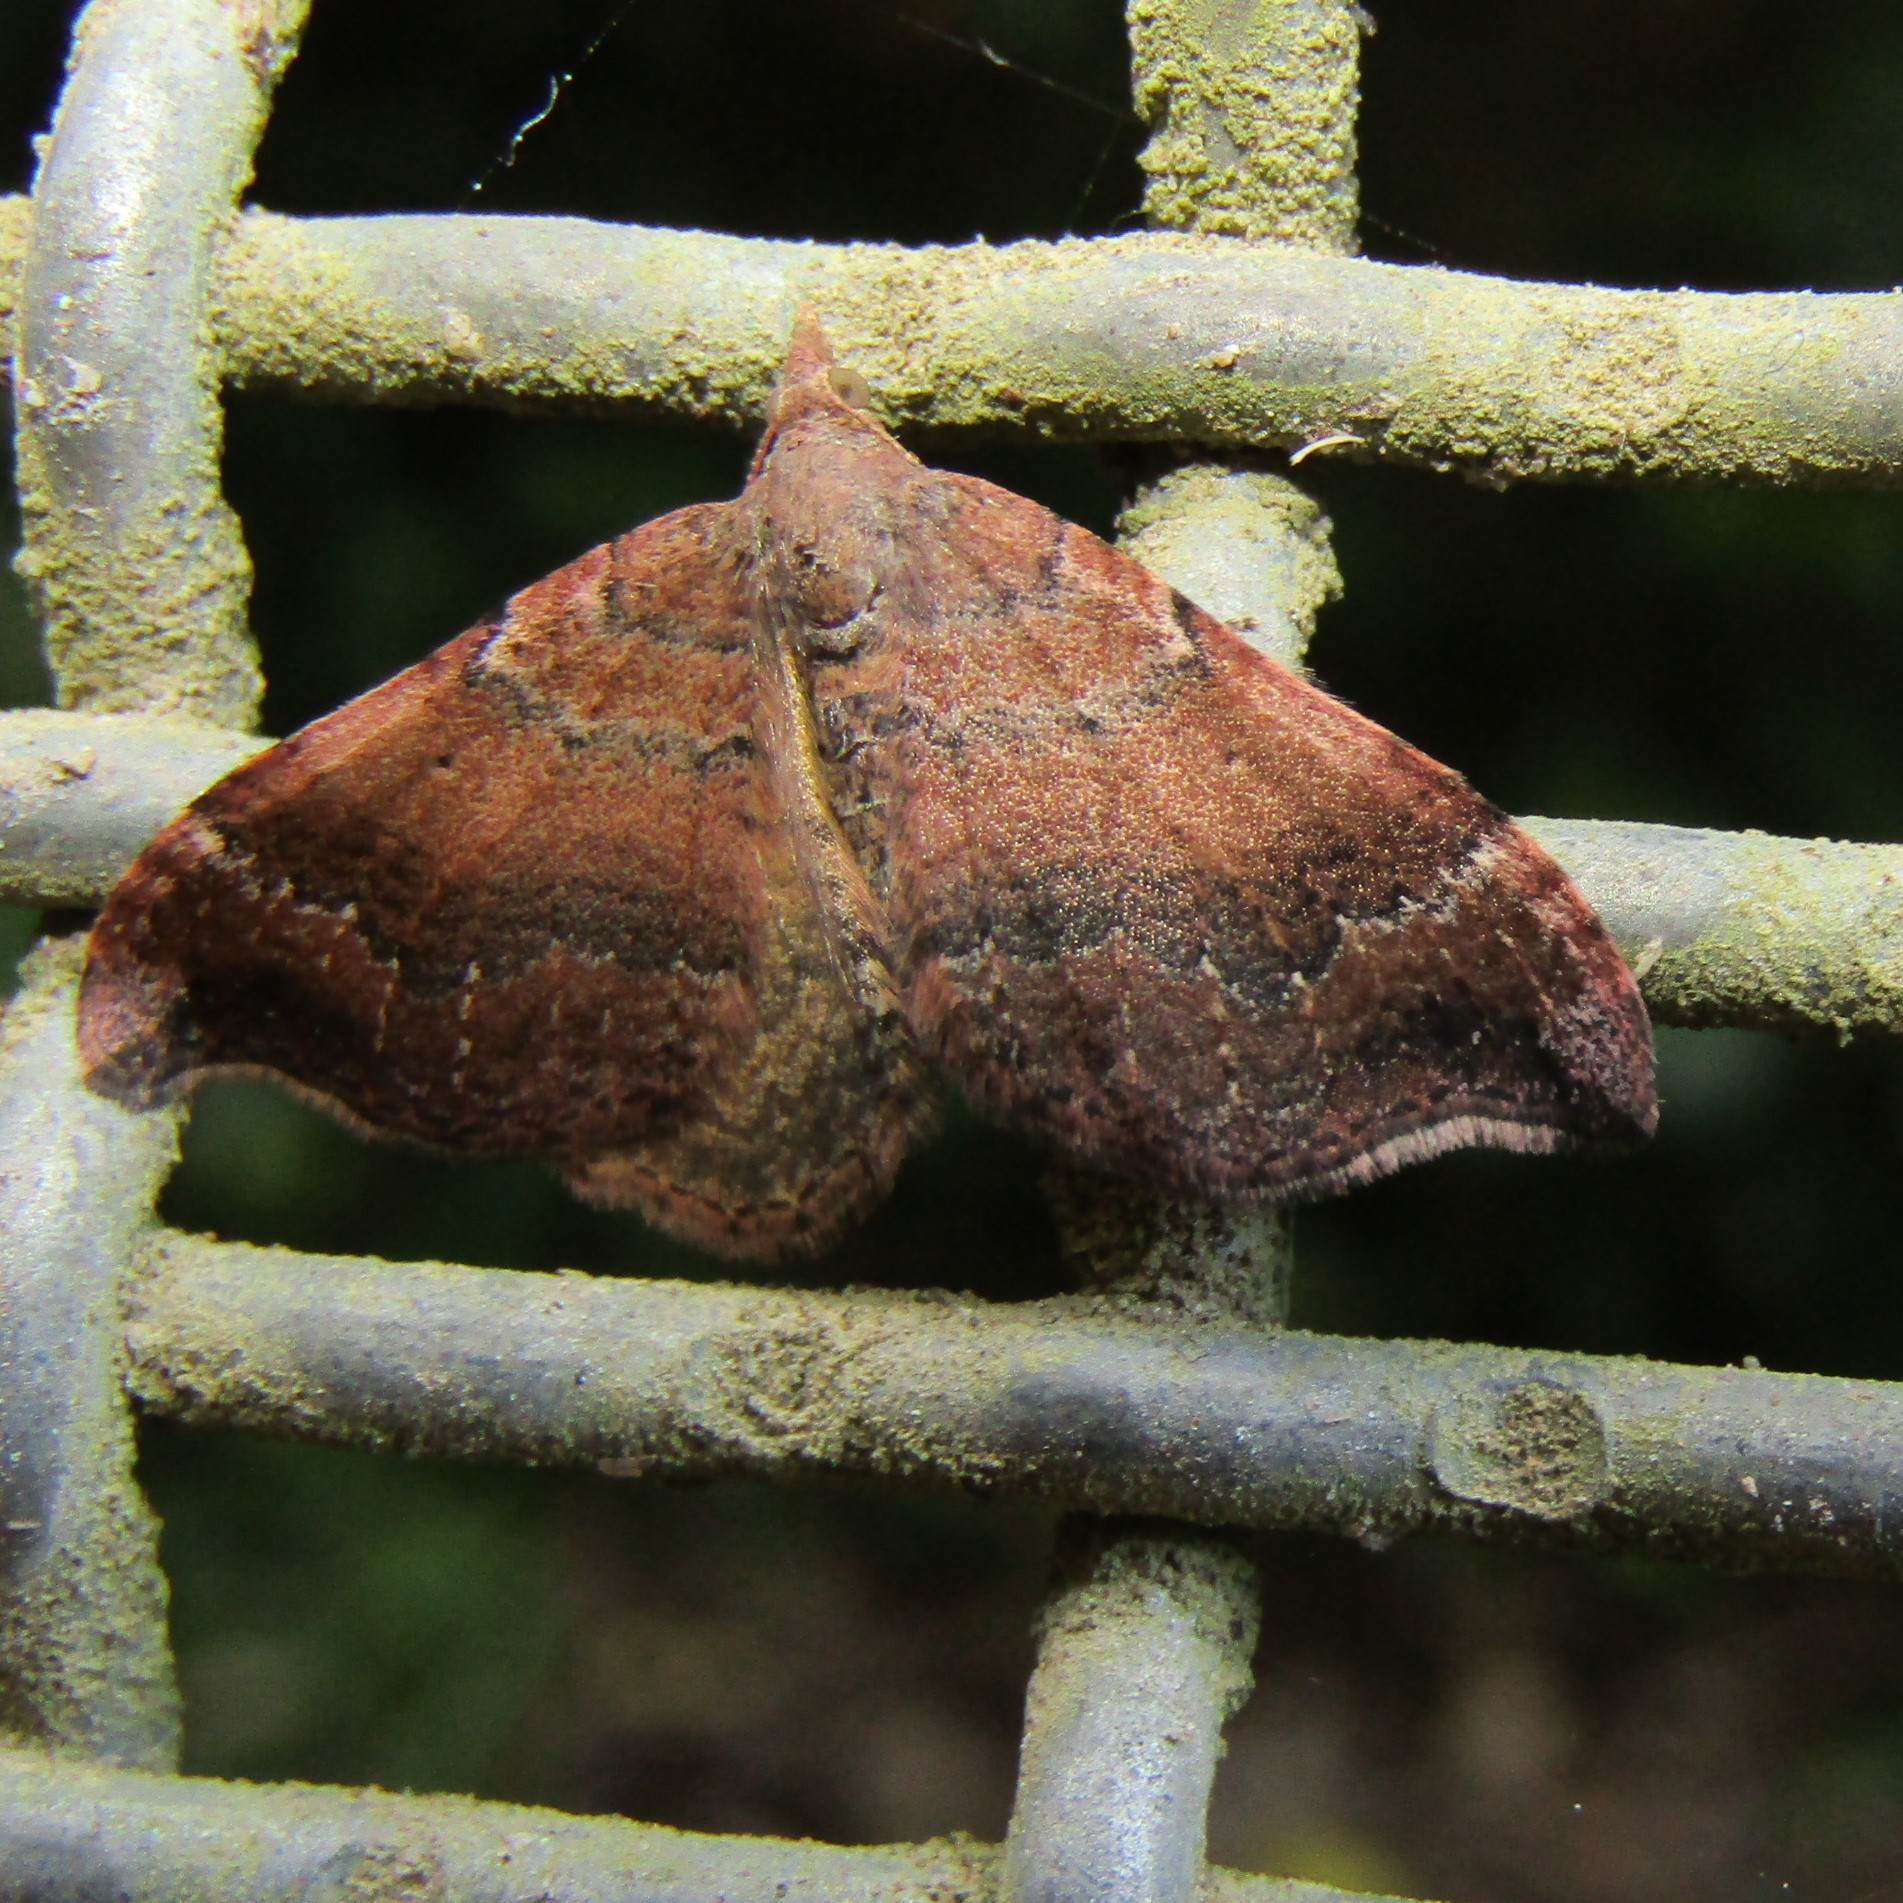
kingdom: Animalia
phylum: Arthropoda
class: Insecta
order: Lepidoptera
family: Geometridae
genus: Homodotis
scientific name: Homodotis megaspilata
